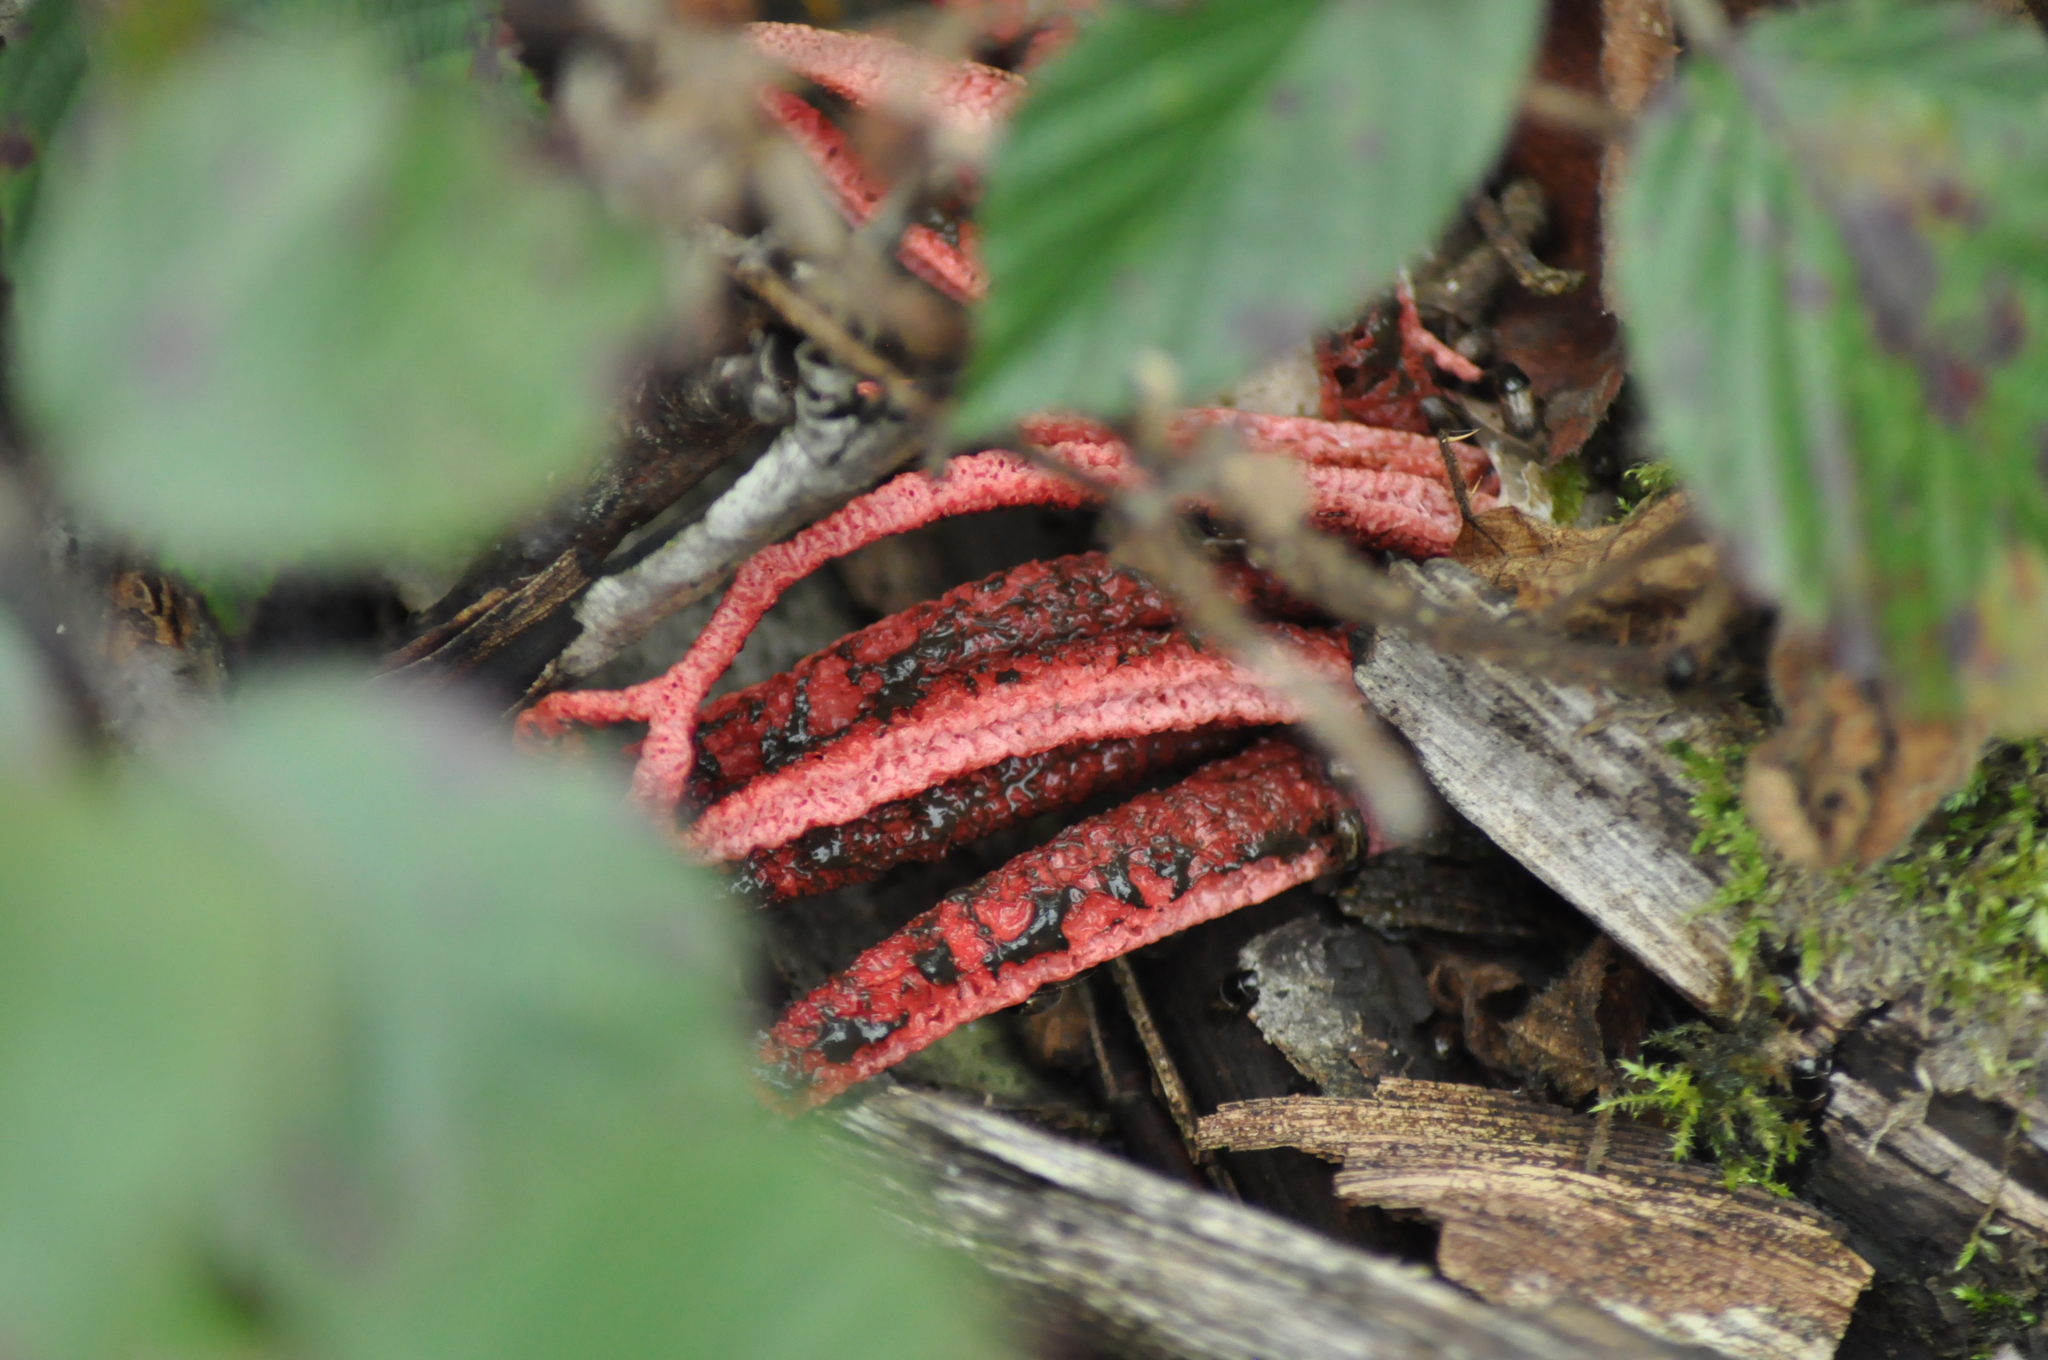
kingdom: Fungi
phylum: Basidiomycota
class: Agaricomycetes
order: Phallales
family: Phallaceae
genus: Clathrus
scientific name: Clathrus archeri
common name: Devil's fingers
